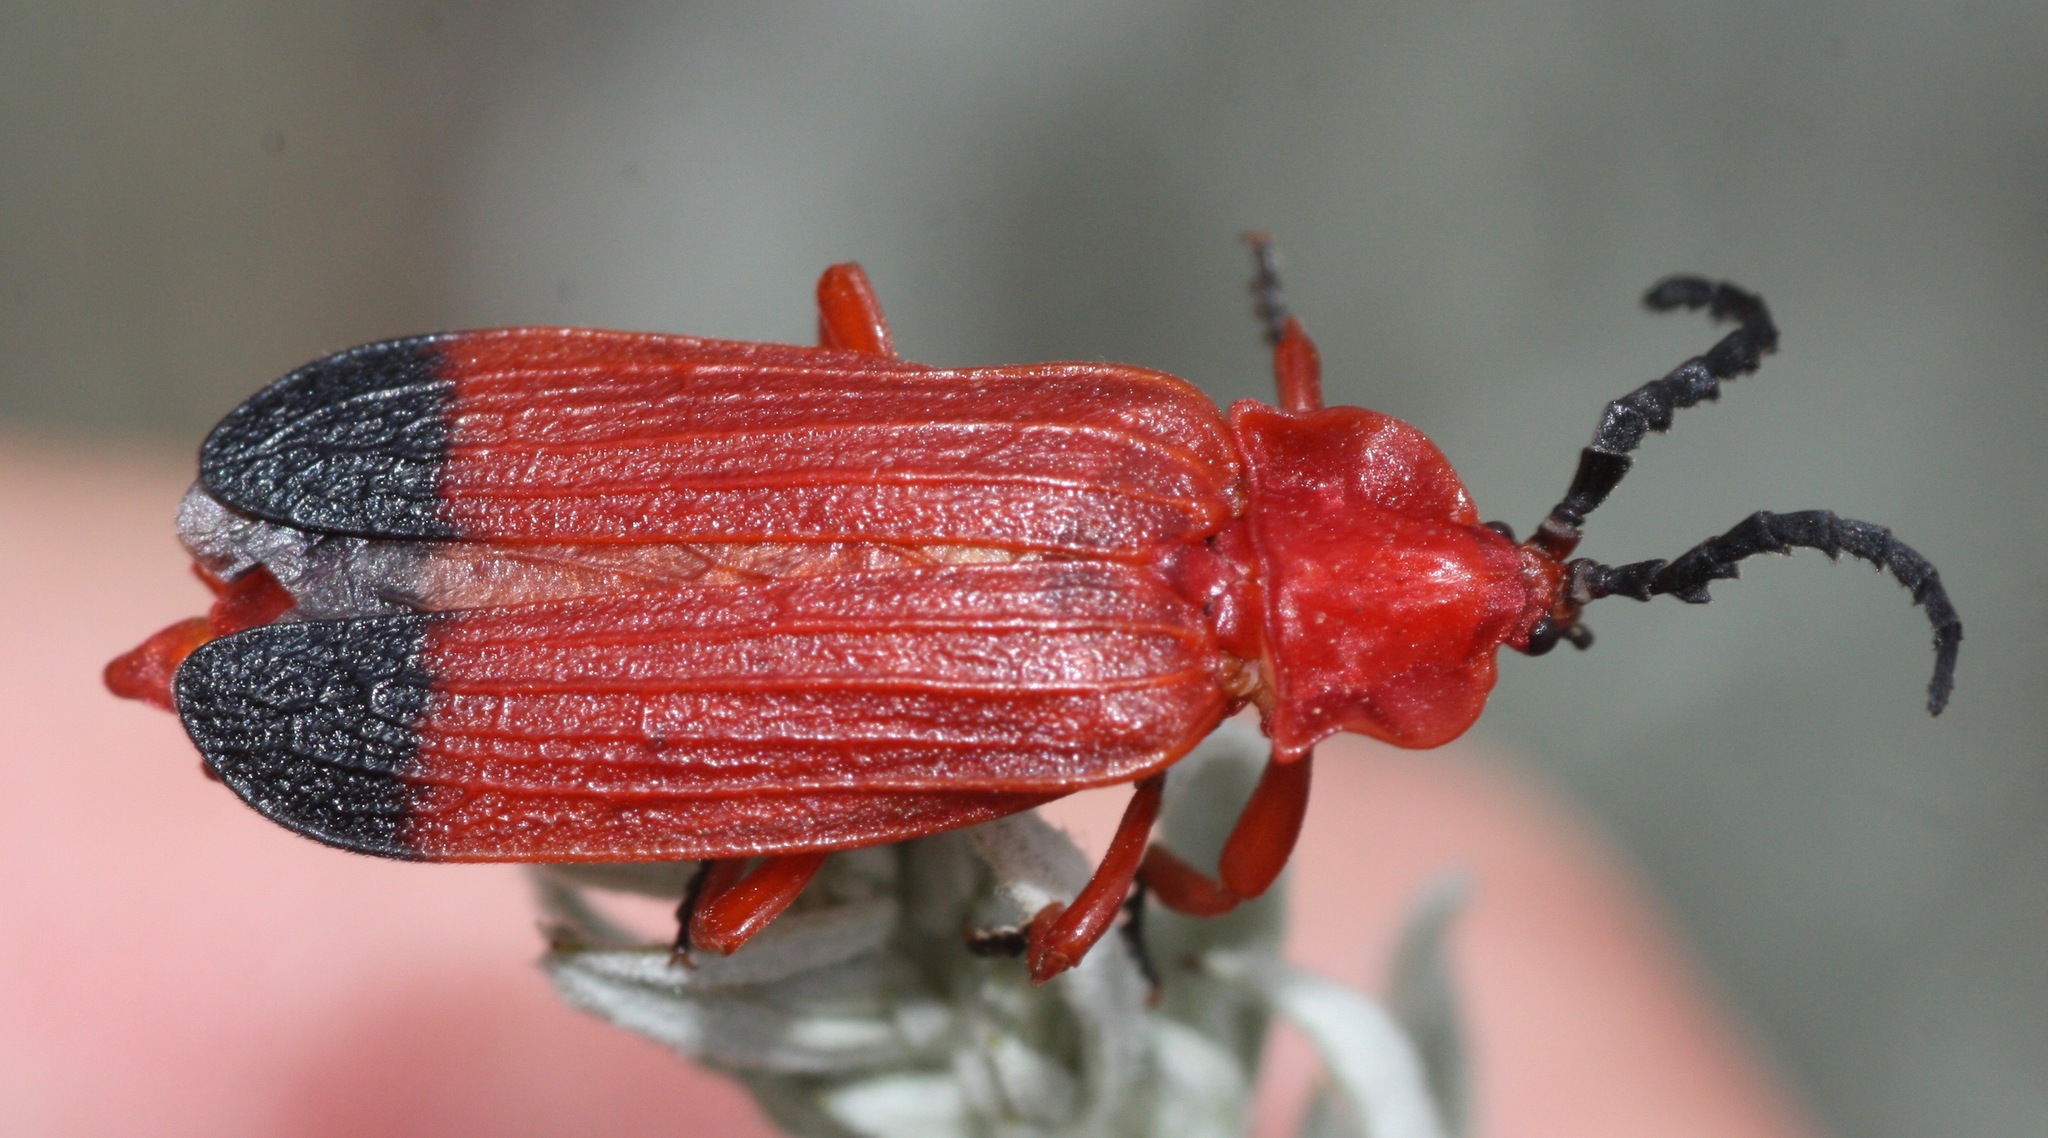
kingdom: Animalia
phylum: Arthropoda
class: Insecta
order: Coleoptera
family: Lycidae
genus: Lycus
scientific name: Lycus sanguineus
